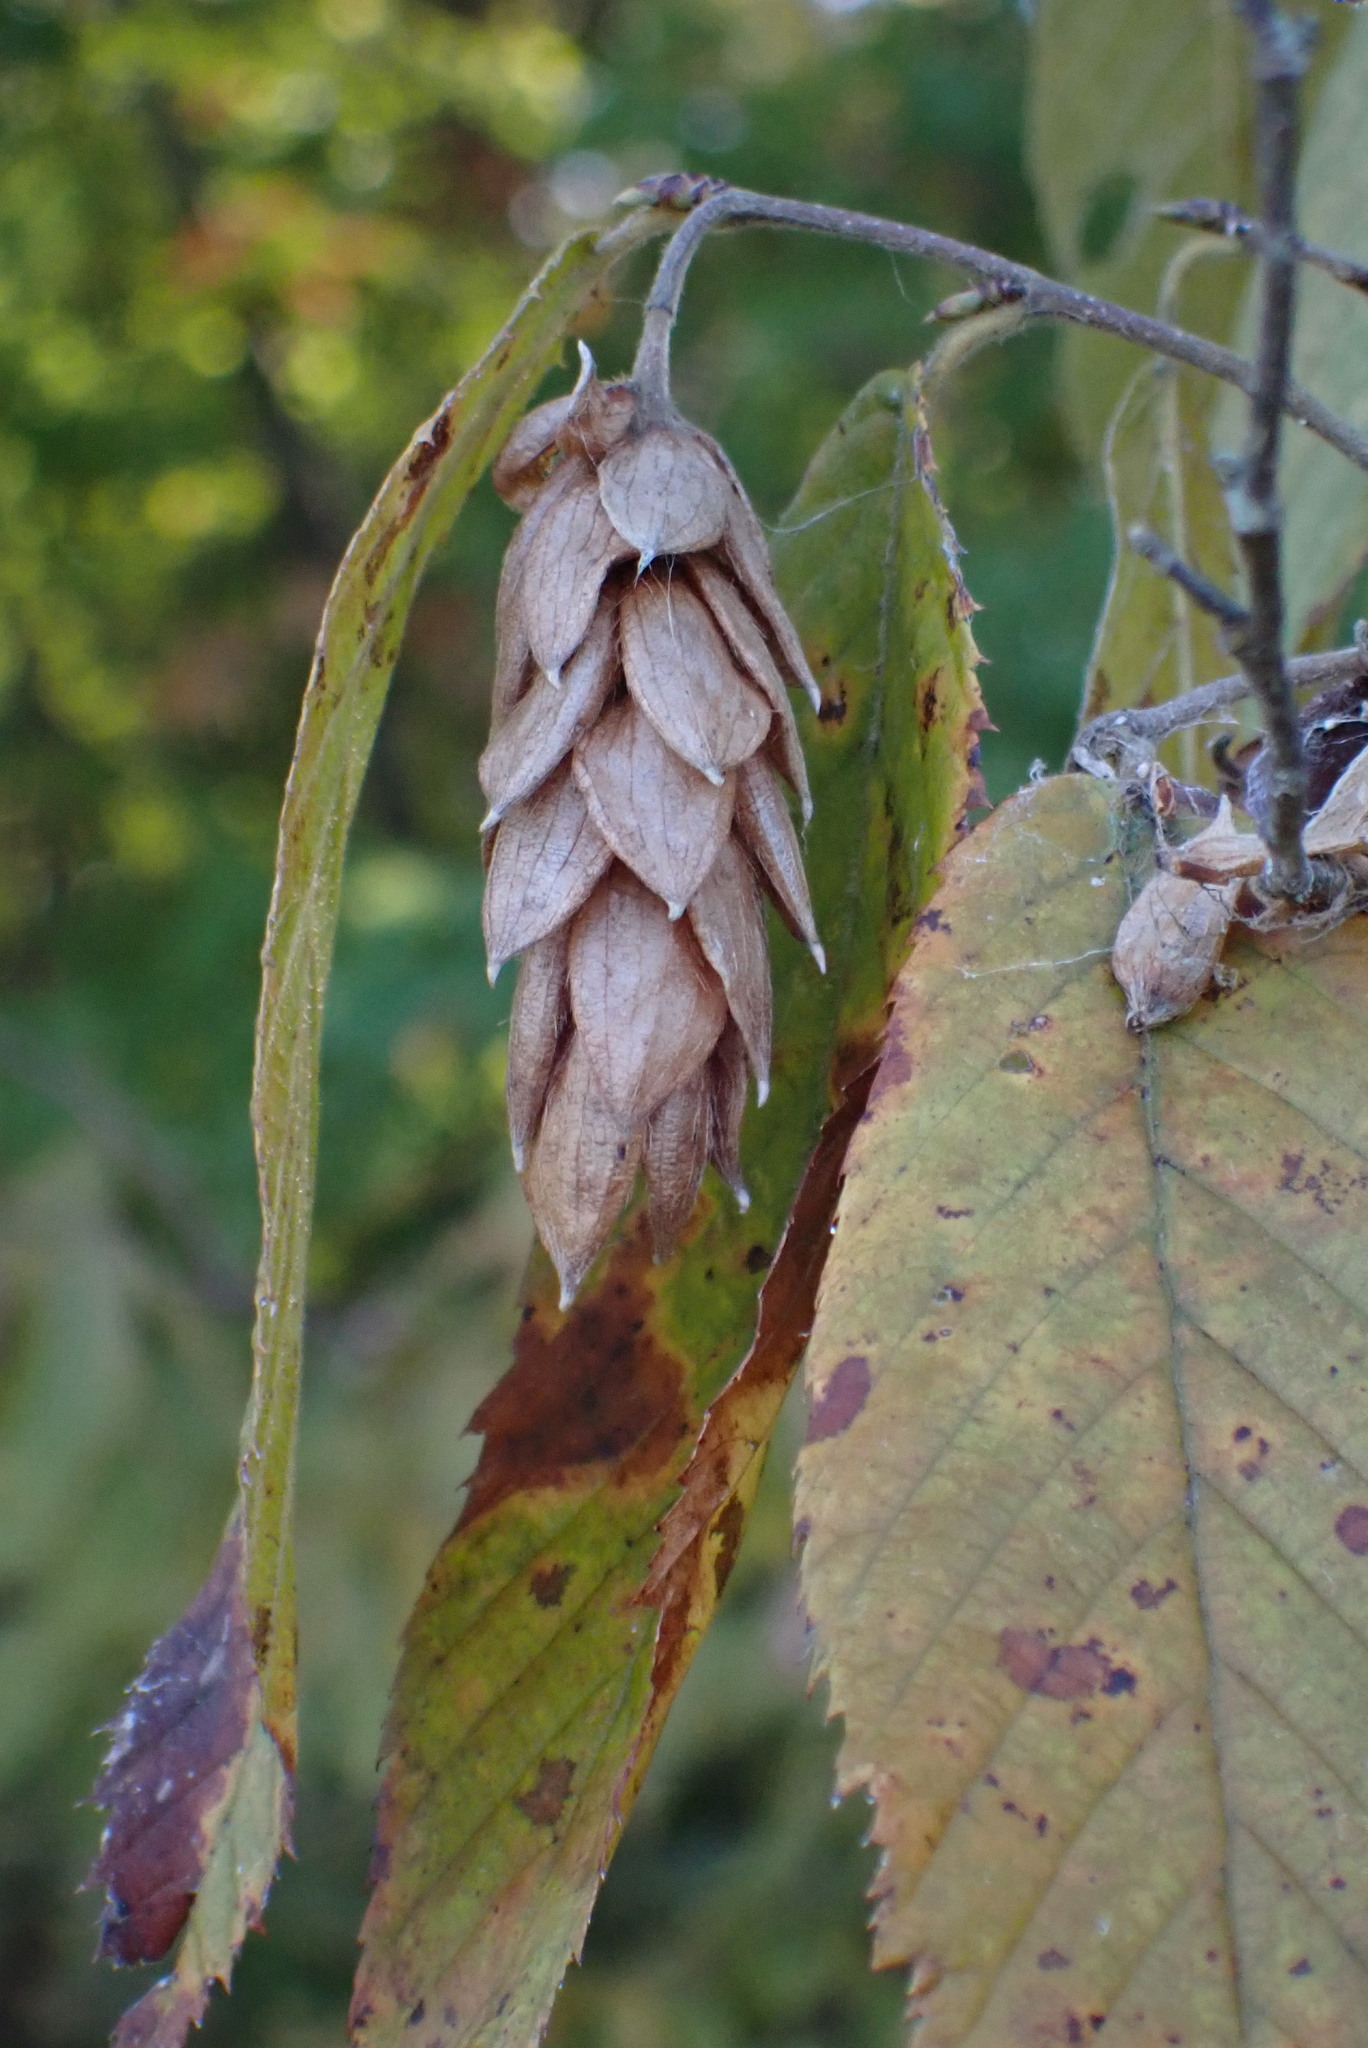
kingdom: Plantae
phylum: Tracheophyta
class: Magnoliopsida
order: Fagales
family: Betulaceae
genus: Ostrya
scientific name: Ostrya virginiana
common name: Ironwood
